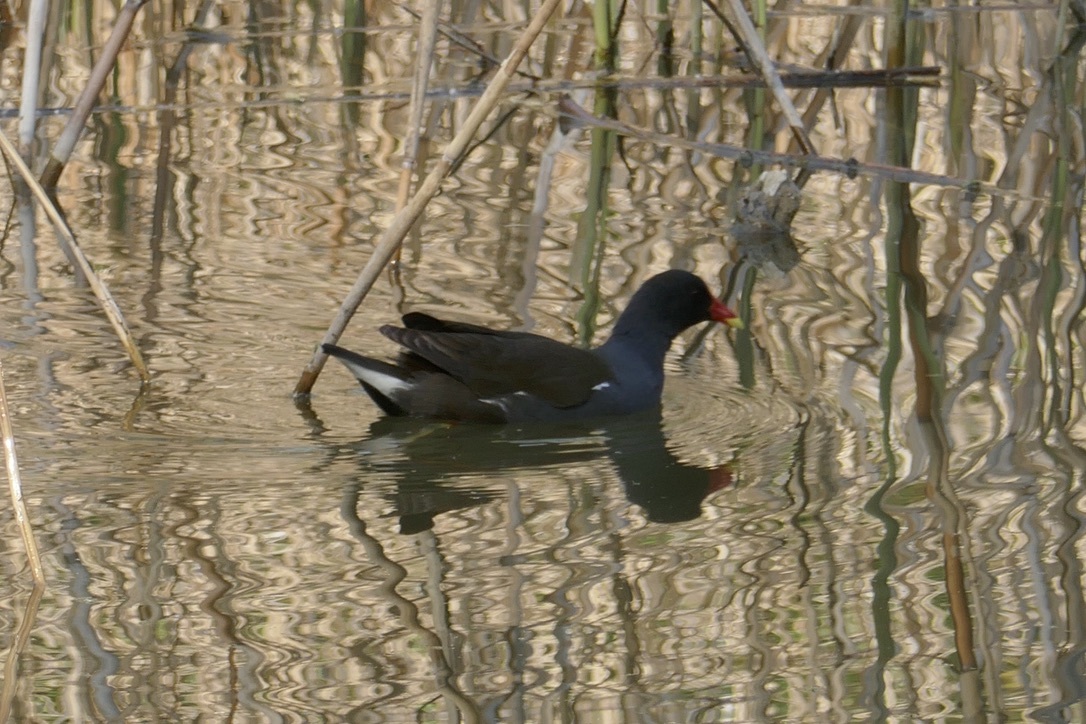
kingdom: Animalia
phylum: Chordata
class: Aves
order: Gruiformes
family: Rallidae
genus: Gallinula
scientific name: Gallinula chloropus
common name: Common moorhen
